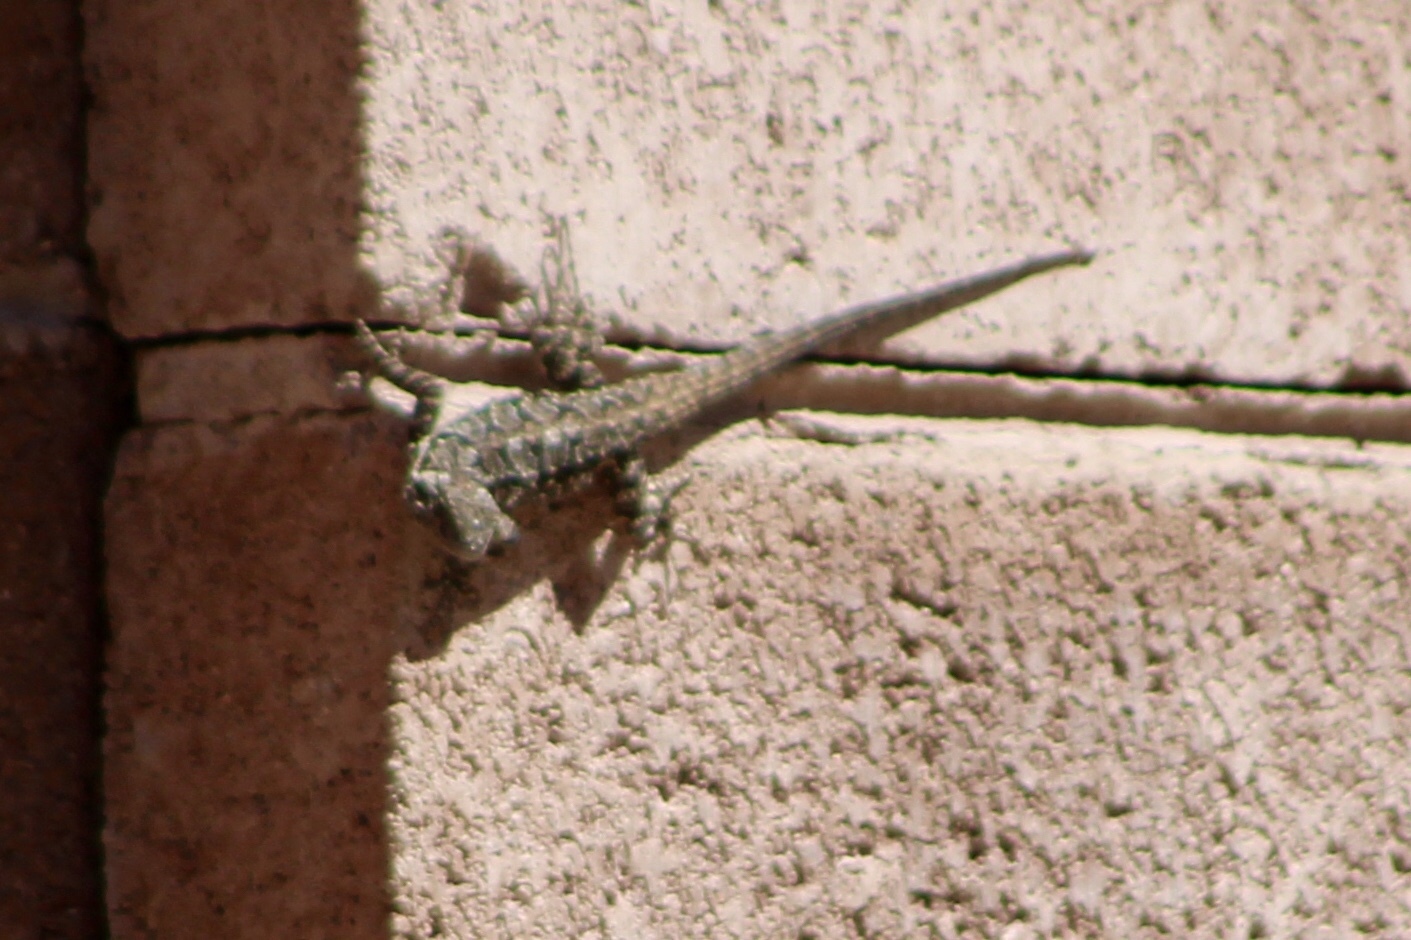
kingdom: Animalia
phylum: Chordata
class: Squamata
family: Phrynosomatidae
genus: Urosaurus
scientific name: Urosaurus ornatus
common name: Ornate tree lizard
